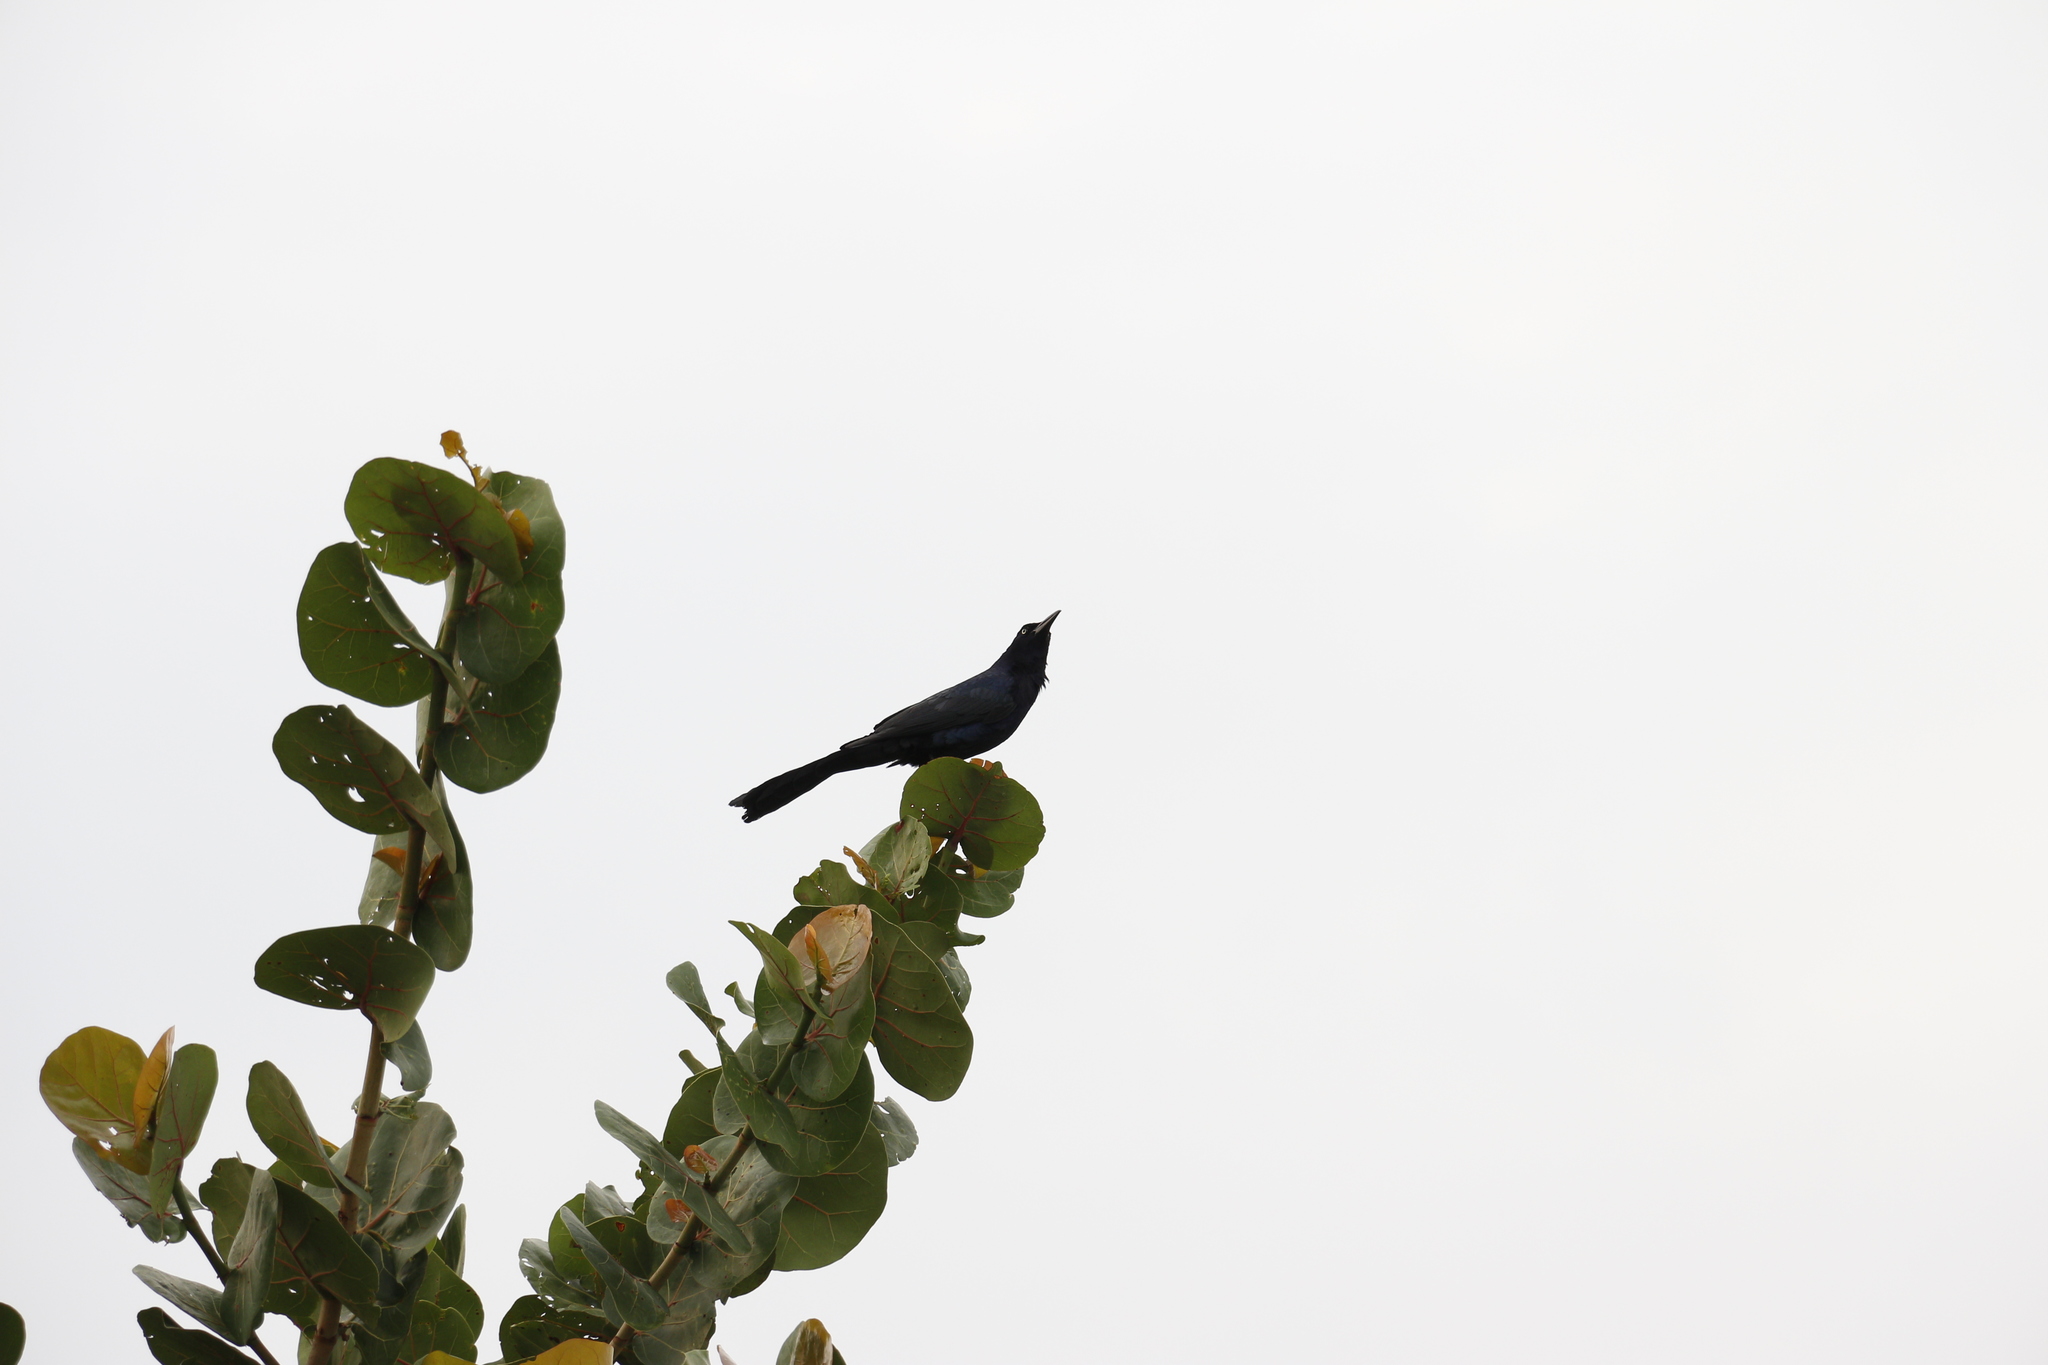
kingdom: Animalia
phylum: Chordata
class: Aves
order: Passeriformes
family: Icteridae
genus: Quiscalus
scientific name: Quiscalus mexicanus
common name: Great-tailed grackle
